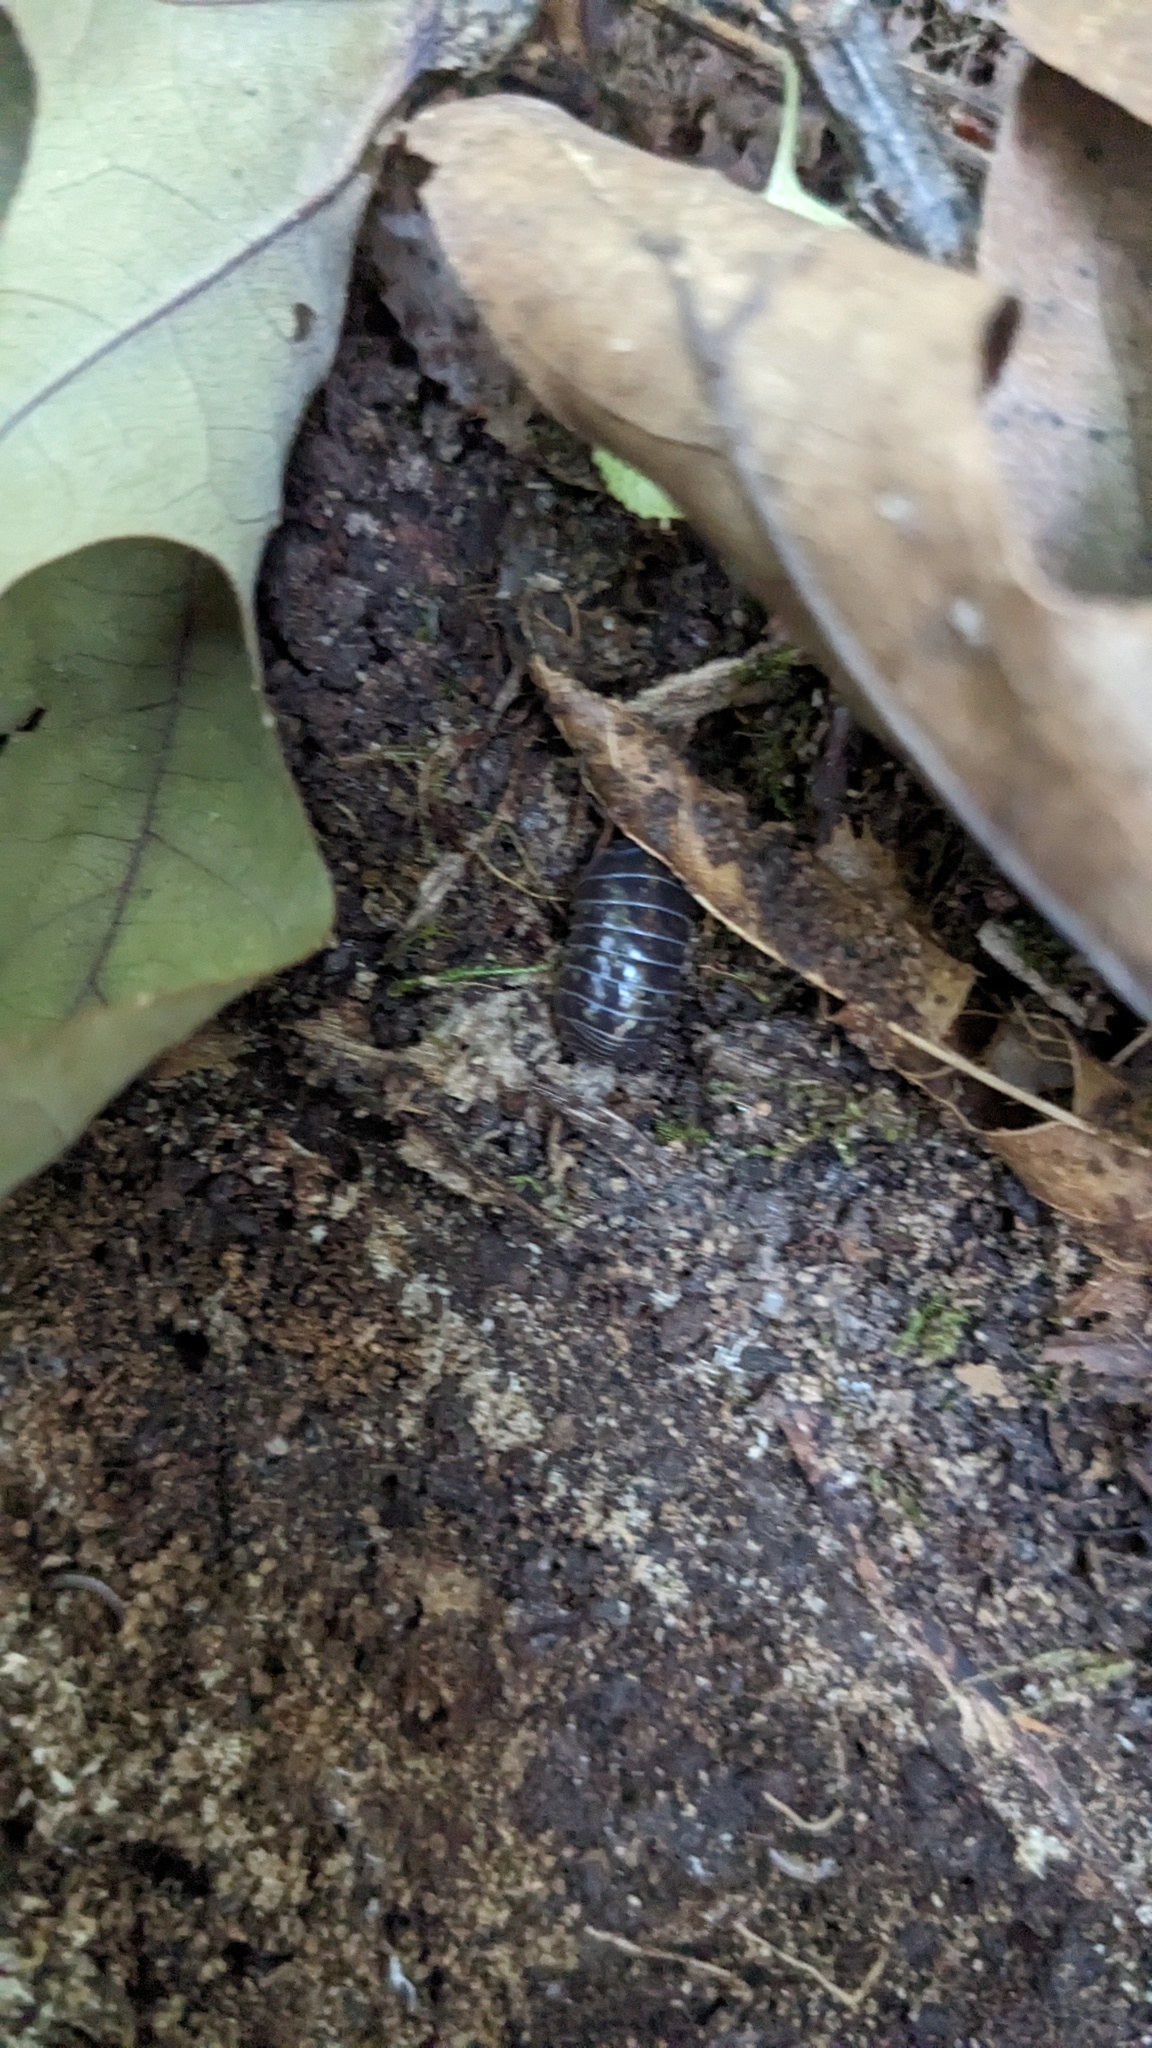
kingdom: Animalia
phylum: Arthropoda
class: Malacostraca
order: Isopoda
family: Armadillidiidae
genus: Armadillidium
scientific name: Armadillidium vulgare
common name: Common pill woodlouse
